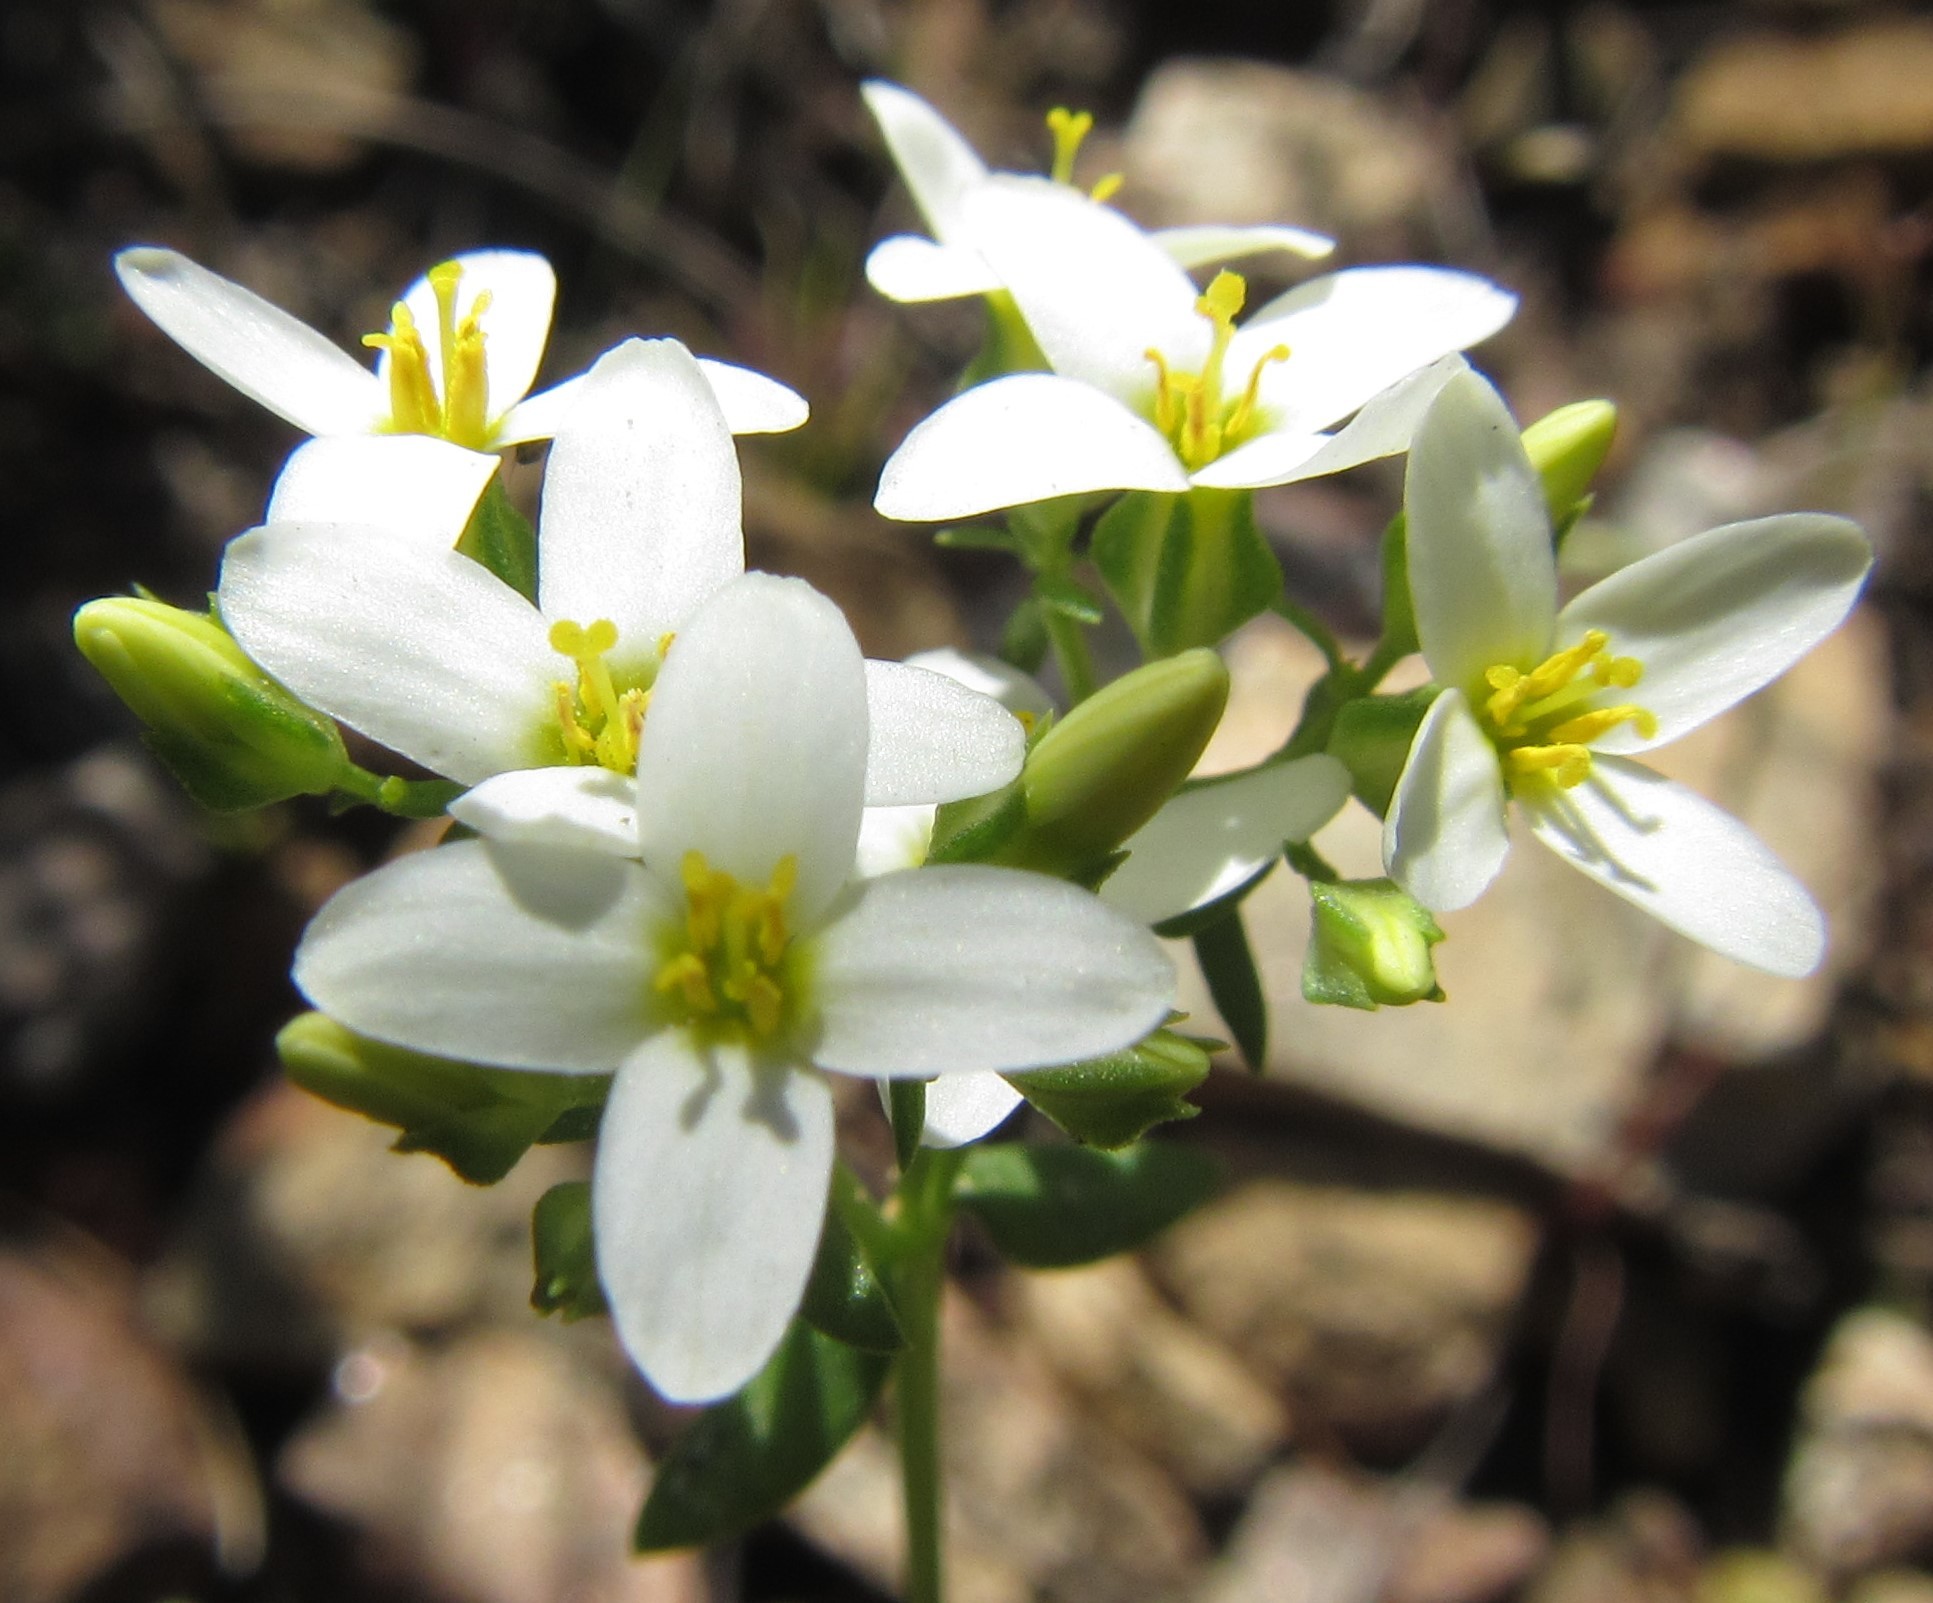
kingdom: Plantae
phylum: Tracheophyta
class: Magnoliopsida
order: Gentianales
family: Gentianaceae
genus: Sebaea
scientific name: Sebaea aurea
